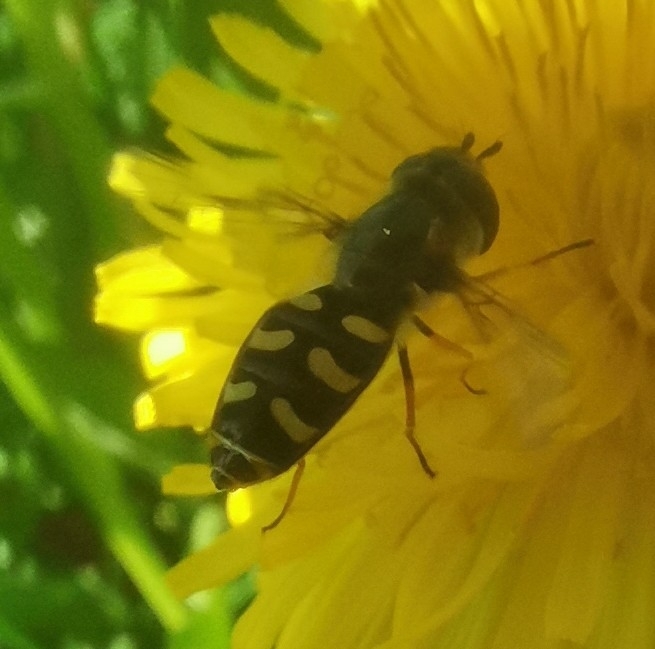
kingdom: Animalia
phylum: Arthropoda
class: Insecta
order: Diptera
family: Syrphidae
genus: Scaeva
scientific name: Scaeva pyrastri
